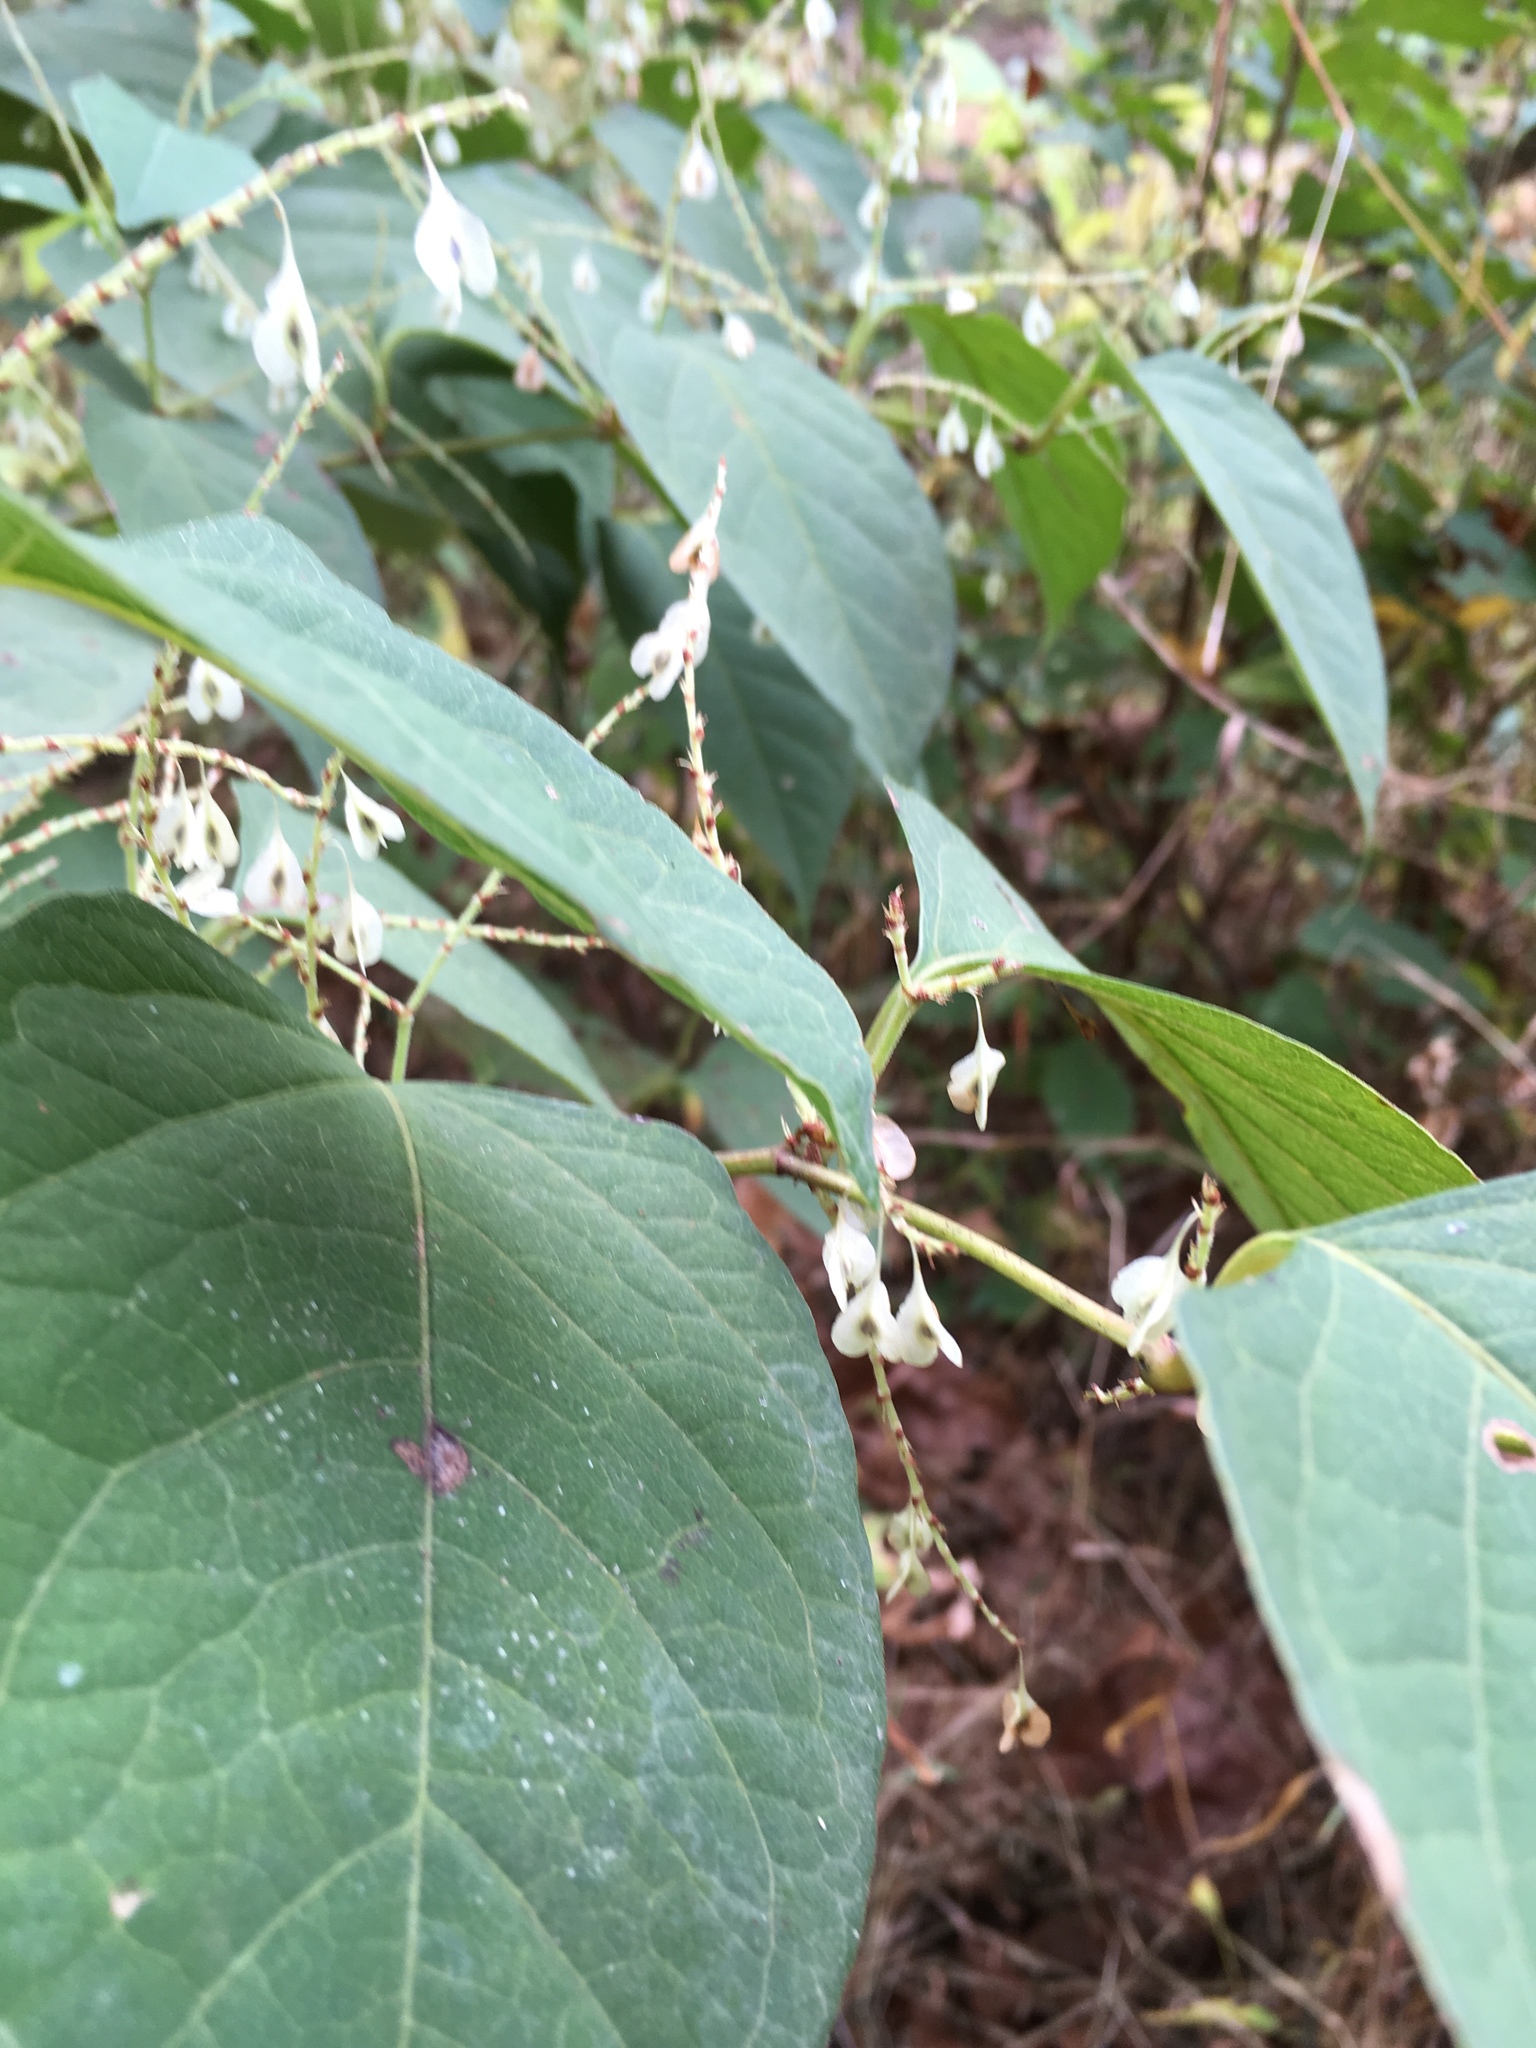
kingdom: Plantae
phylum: Tracheophyta
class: Magnoliopsida
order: Caryophyllales
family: Polygonaceae
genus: Reynoutria
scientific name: Reynoutria japonica
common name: Japanese knotweed
